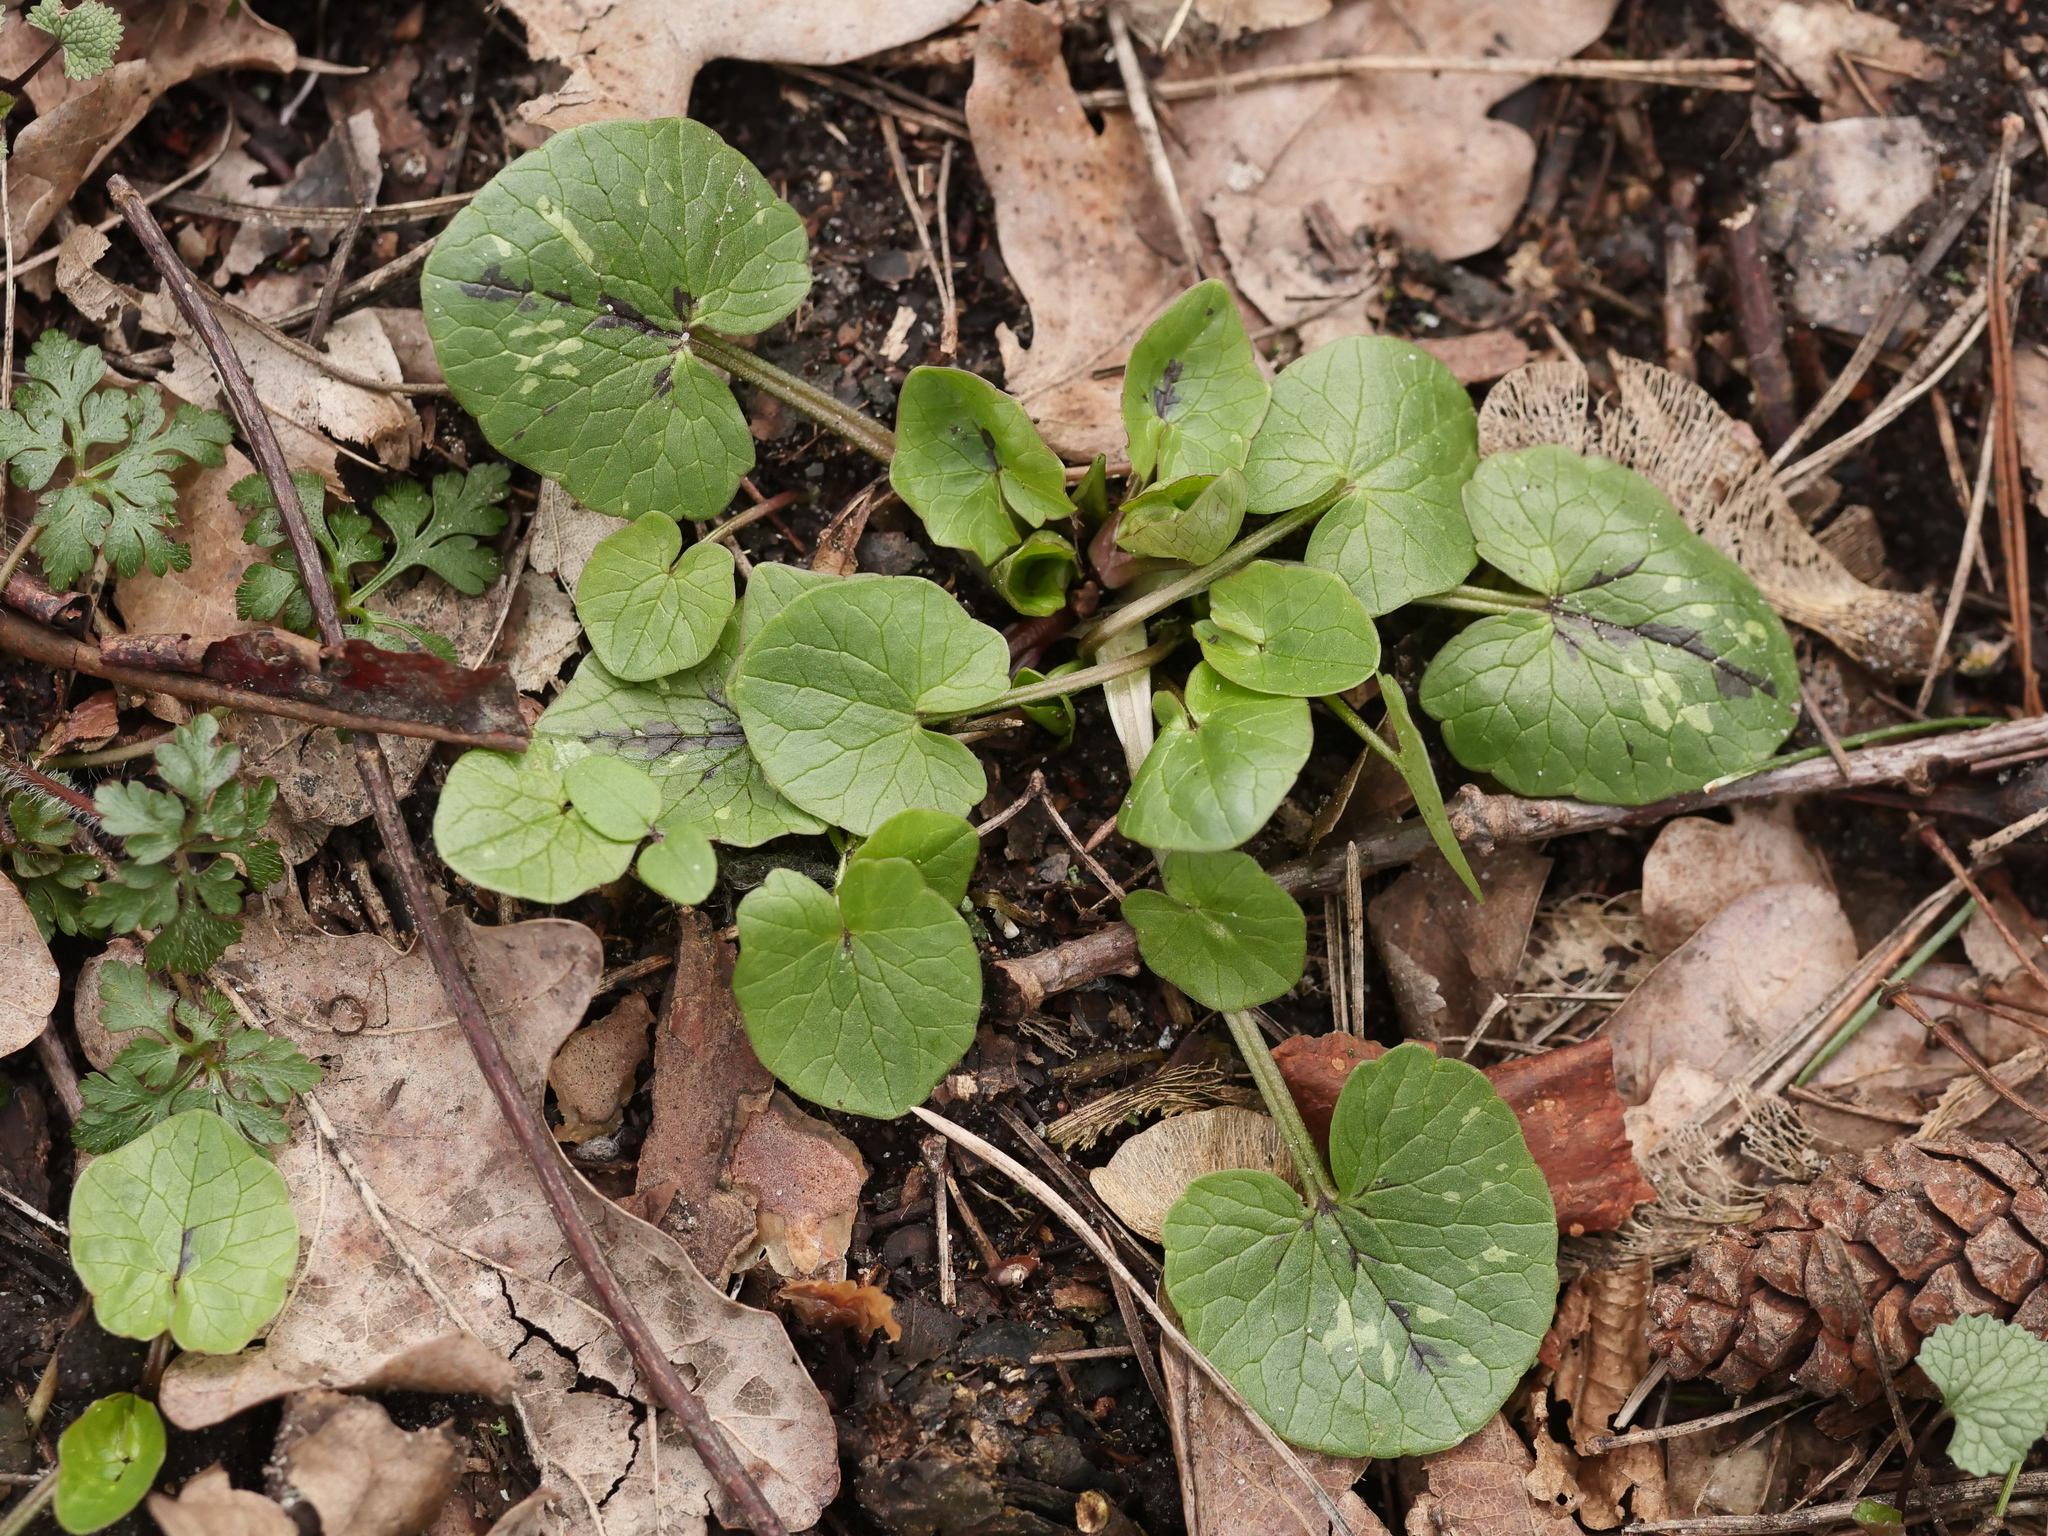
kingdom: Plantae
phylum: Tracheophyta
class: Magnoliopsida
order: Ranunculales
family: Ranunculaceae
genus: Ficaria
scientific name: Ficaria verna
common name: Lesser celandine
